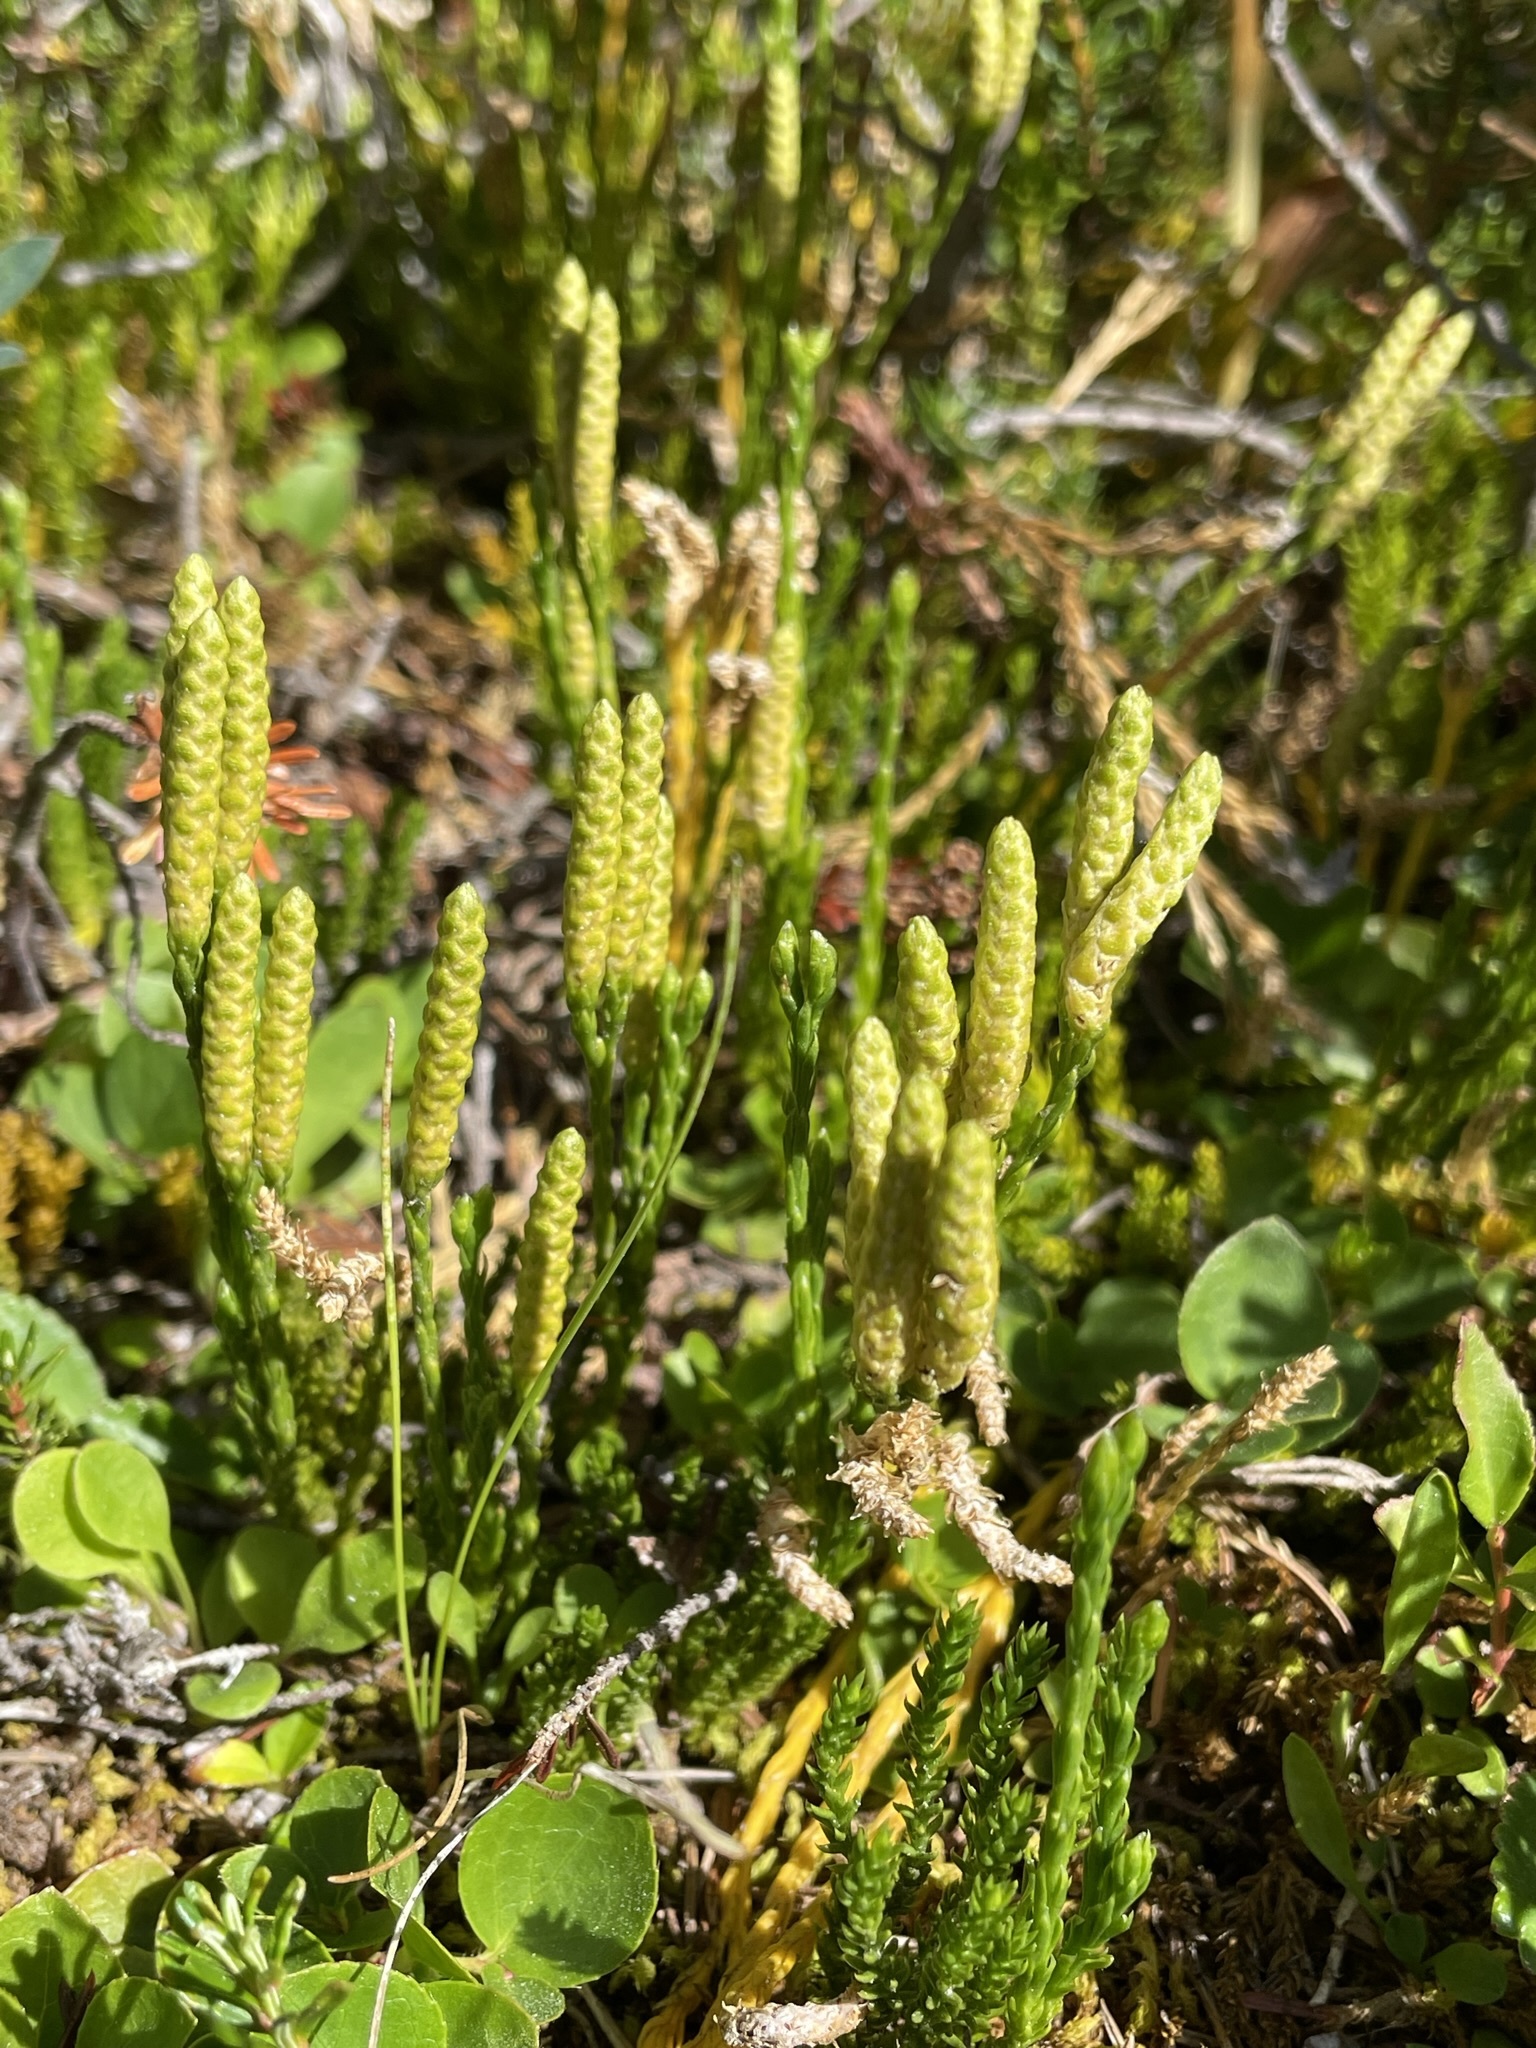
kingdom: Plantae
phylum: Tracheophyta
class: Lycopodiopsida
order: Lycopodiales
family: Lycopodiaceae
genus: Diphasiastrum
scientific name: Diphasiastrum sitchense
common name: Alaska clubmoss
